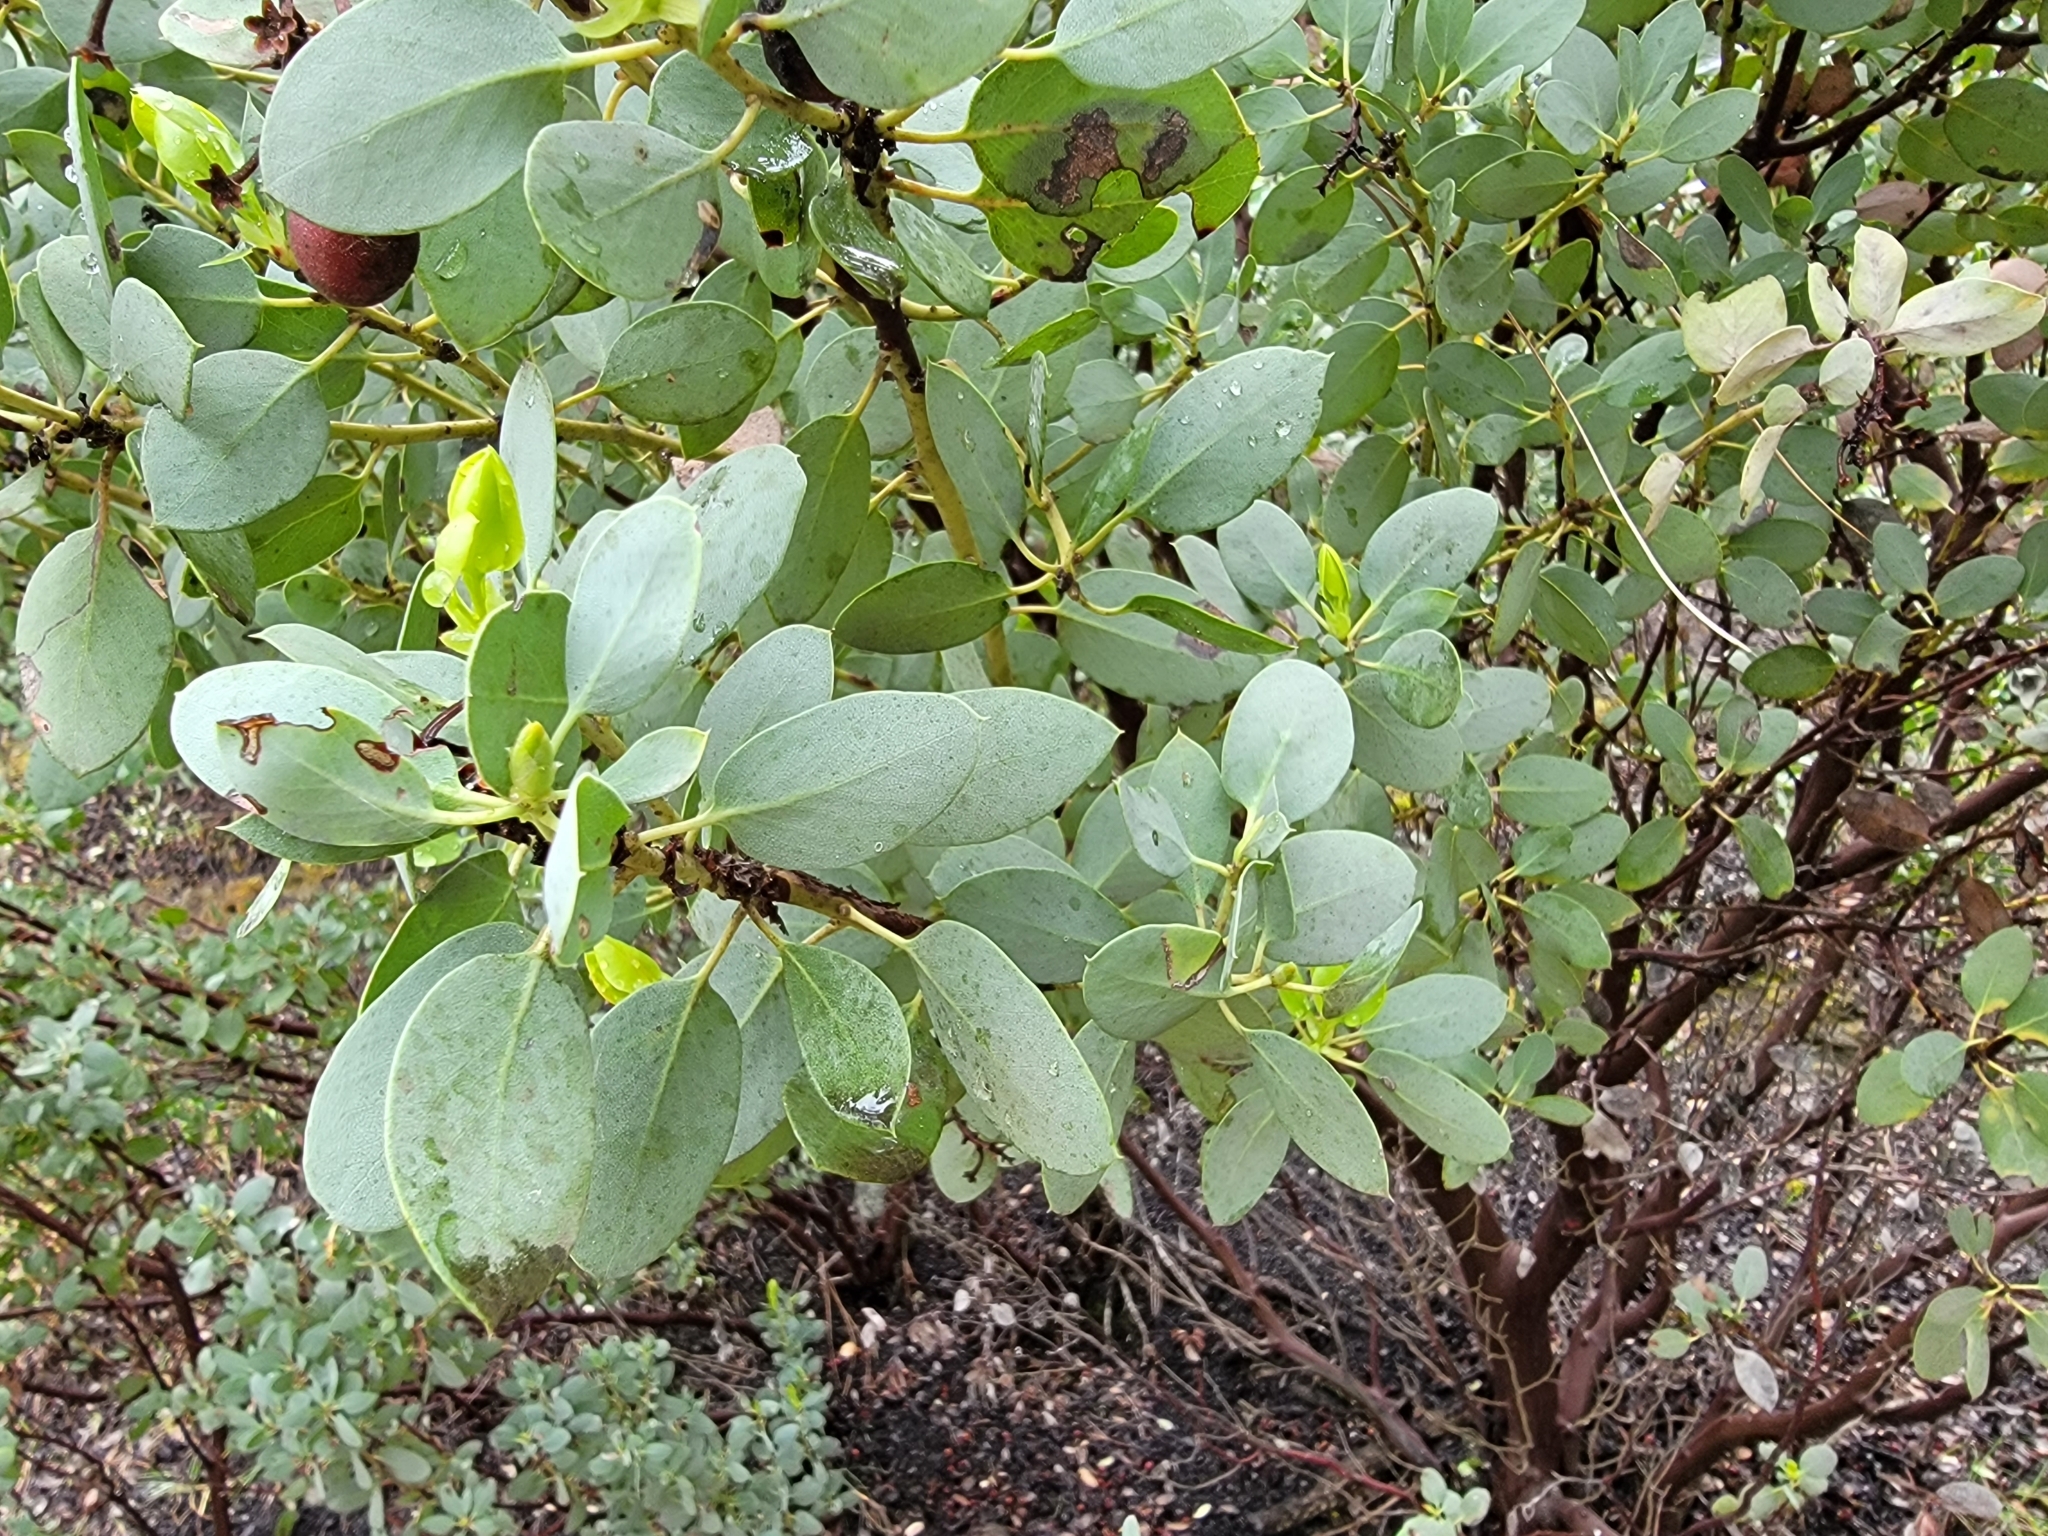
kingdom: Plantae
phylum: Tracheophyta
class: Magnoliopsida
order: Ericales
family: Ericaceae
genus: Arctostaphylos
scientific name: Arctostaphylos glauca
